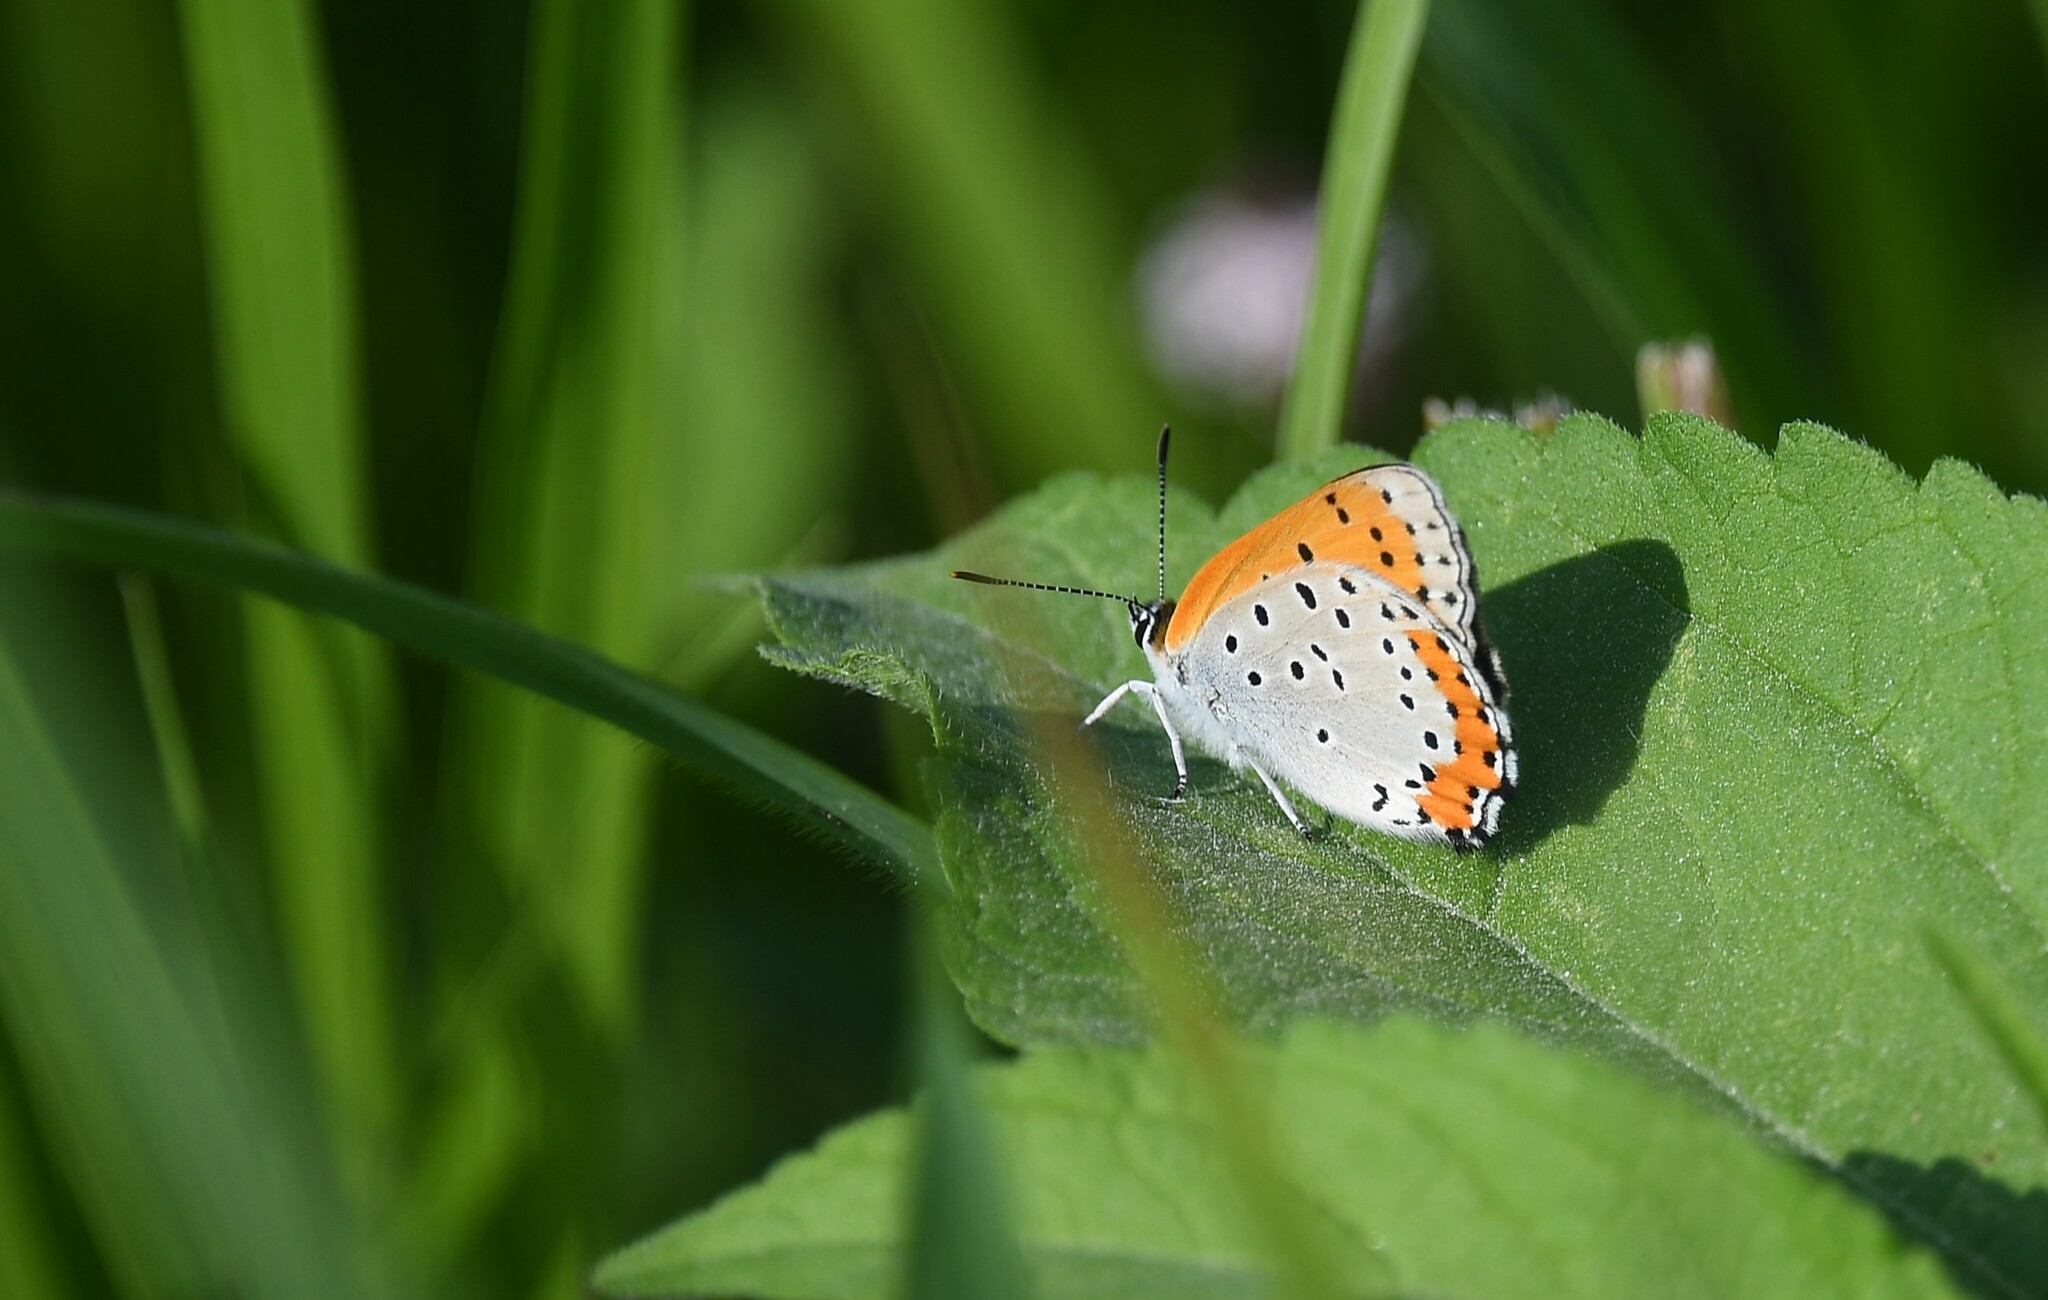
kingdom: Animalia
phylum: Arthropoda
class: Insecta
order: Lepidoptera
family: Lycaenidae
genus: Tharsalea
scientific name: Tharsalea hyllus
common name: Bronze copper
